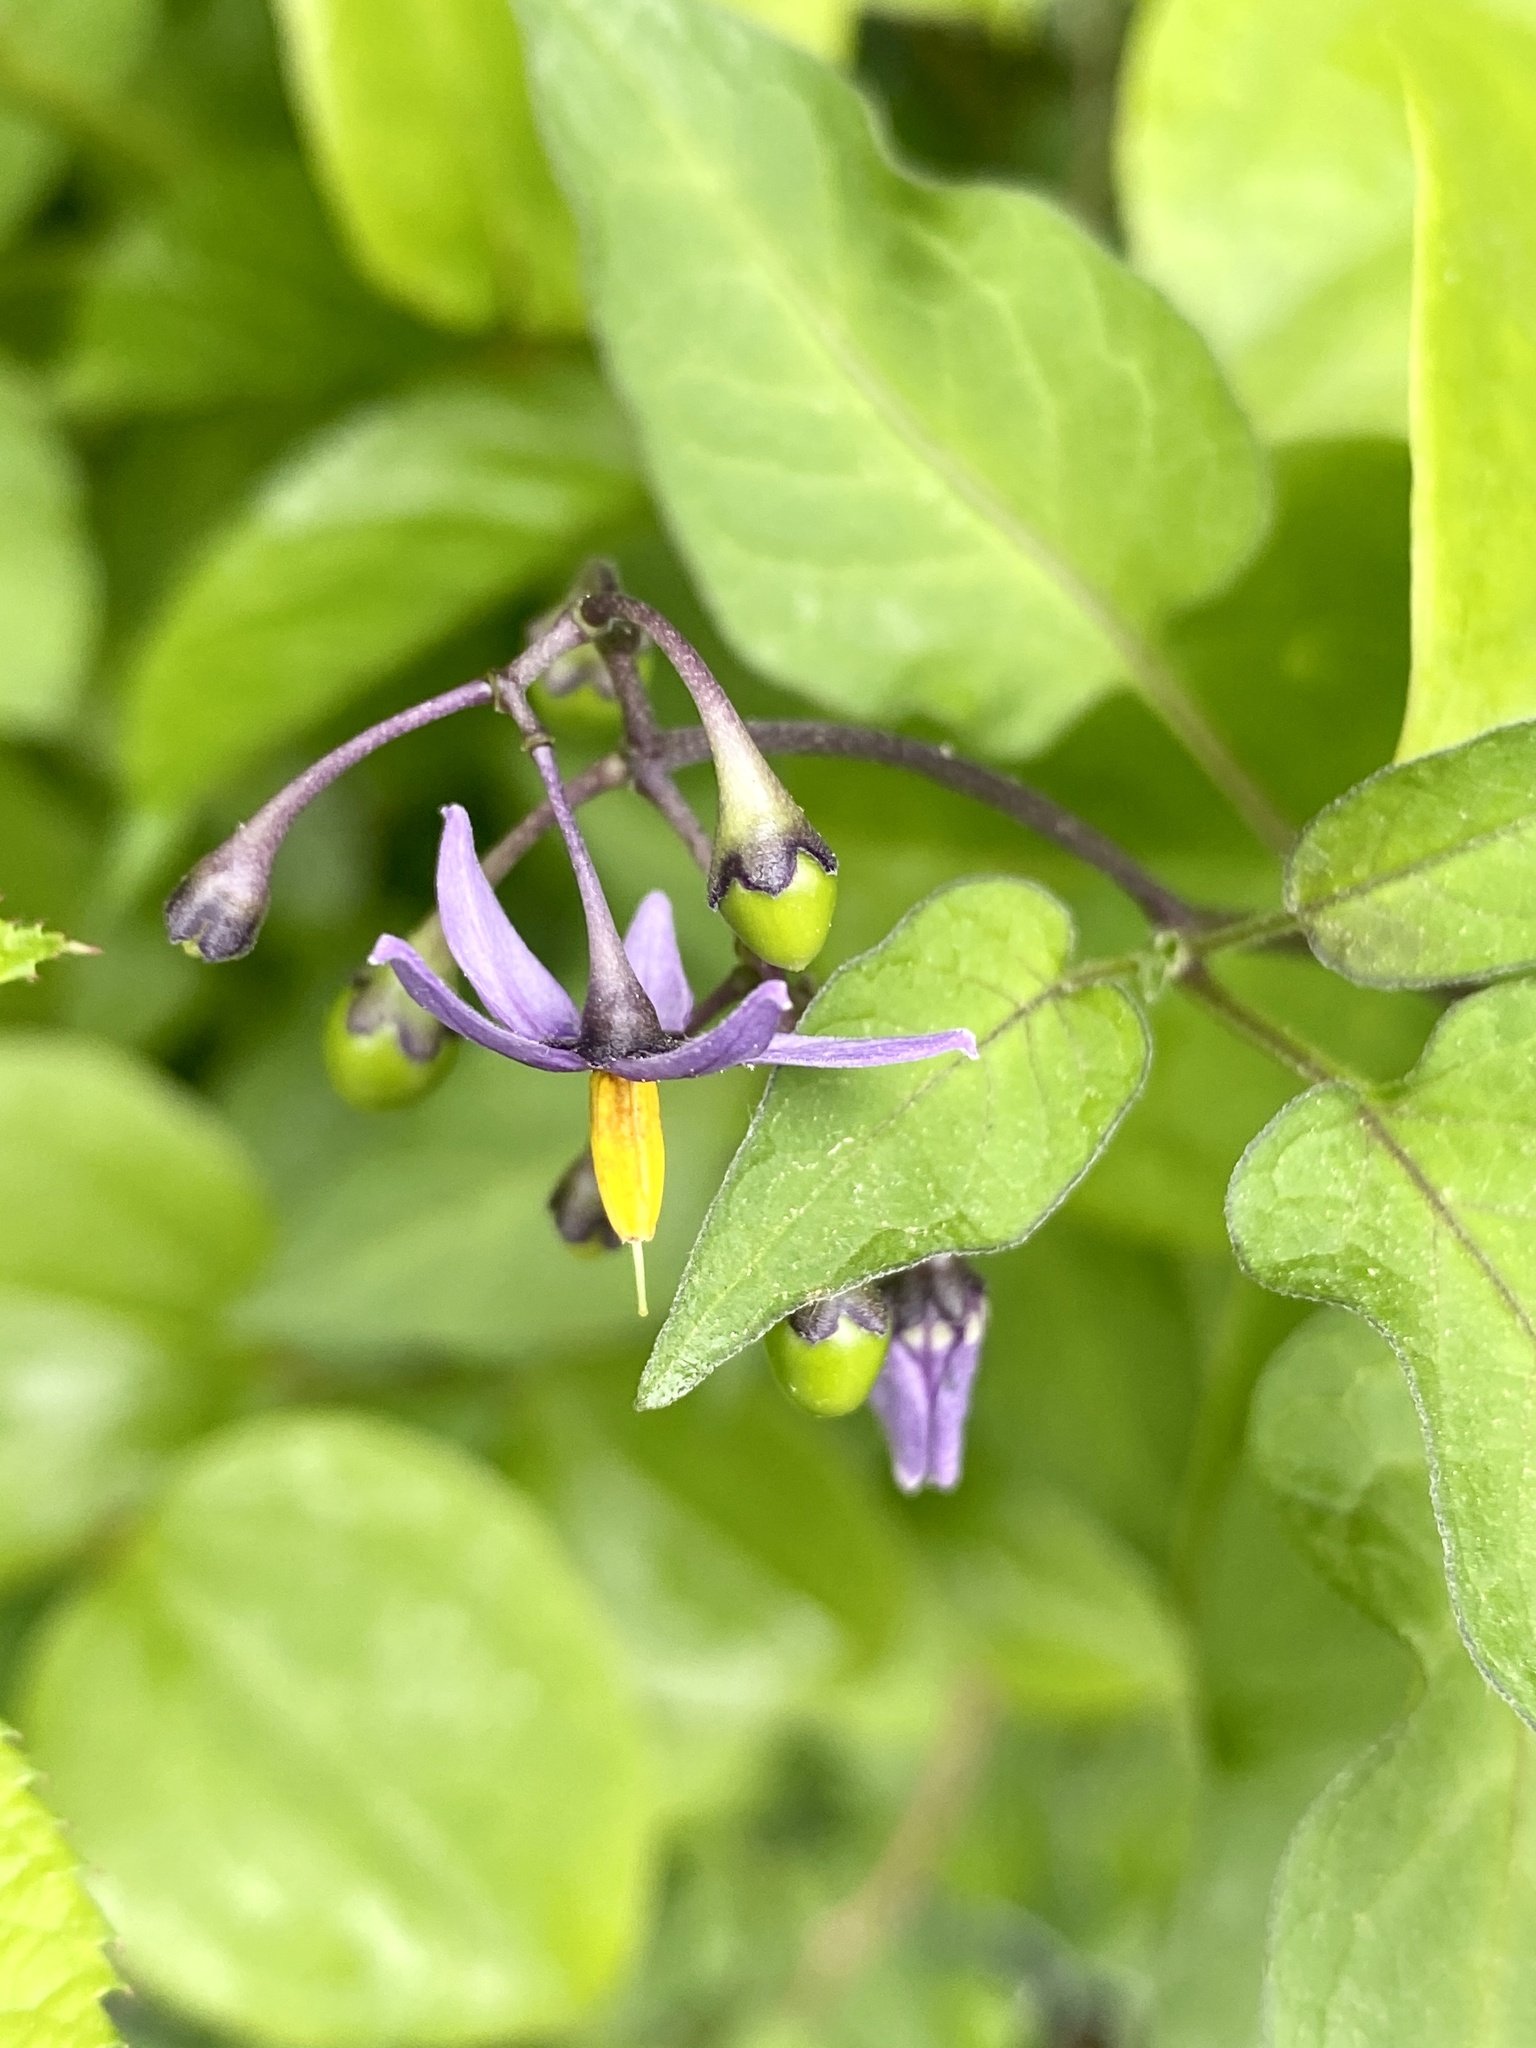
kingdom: Plantae
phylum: Tracheophyta
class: Magnoliopsida
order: Solanales
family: Solanaceae
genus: Solanum
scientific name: Solanum dulcamara
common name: Climbing nightshade
